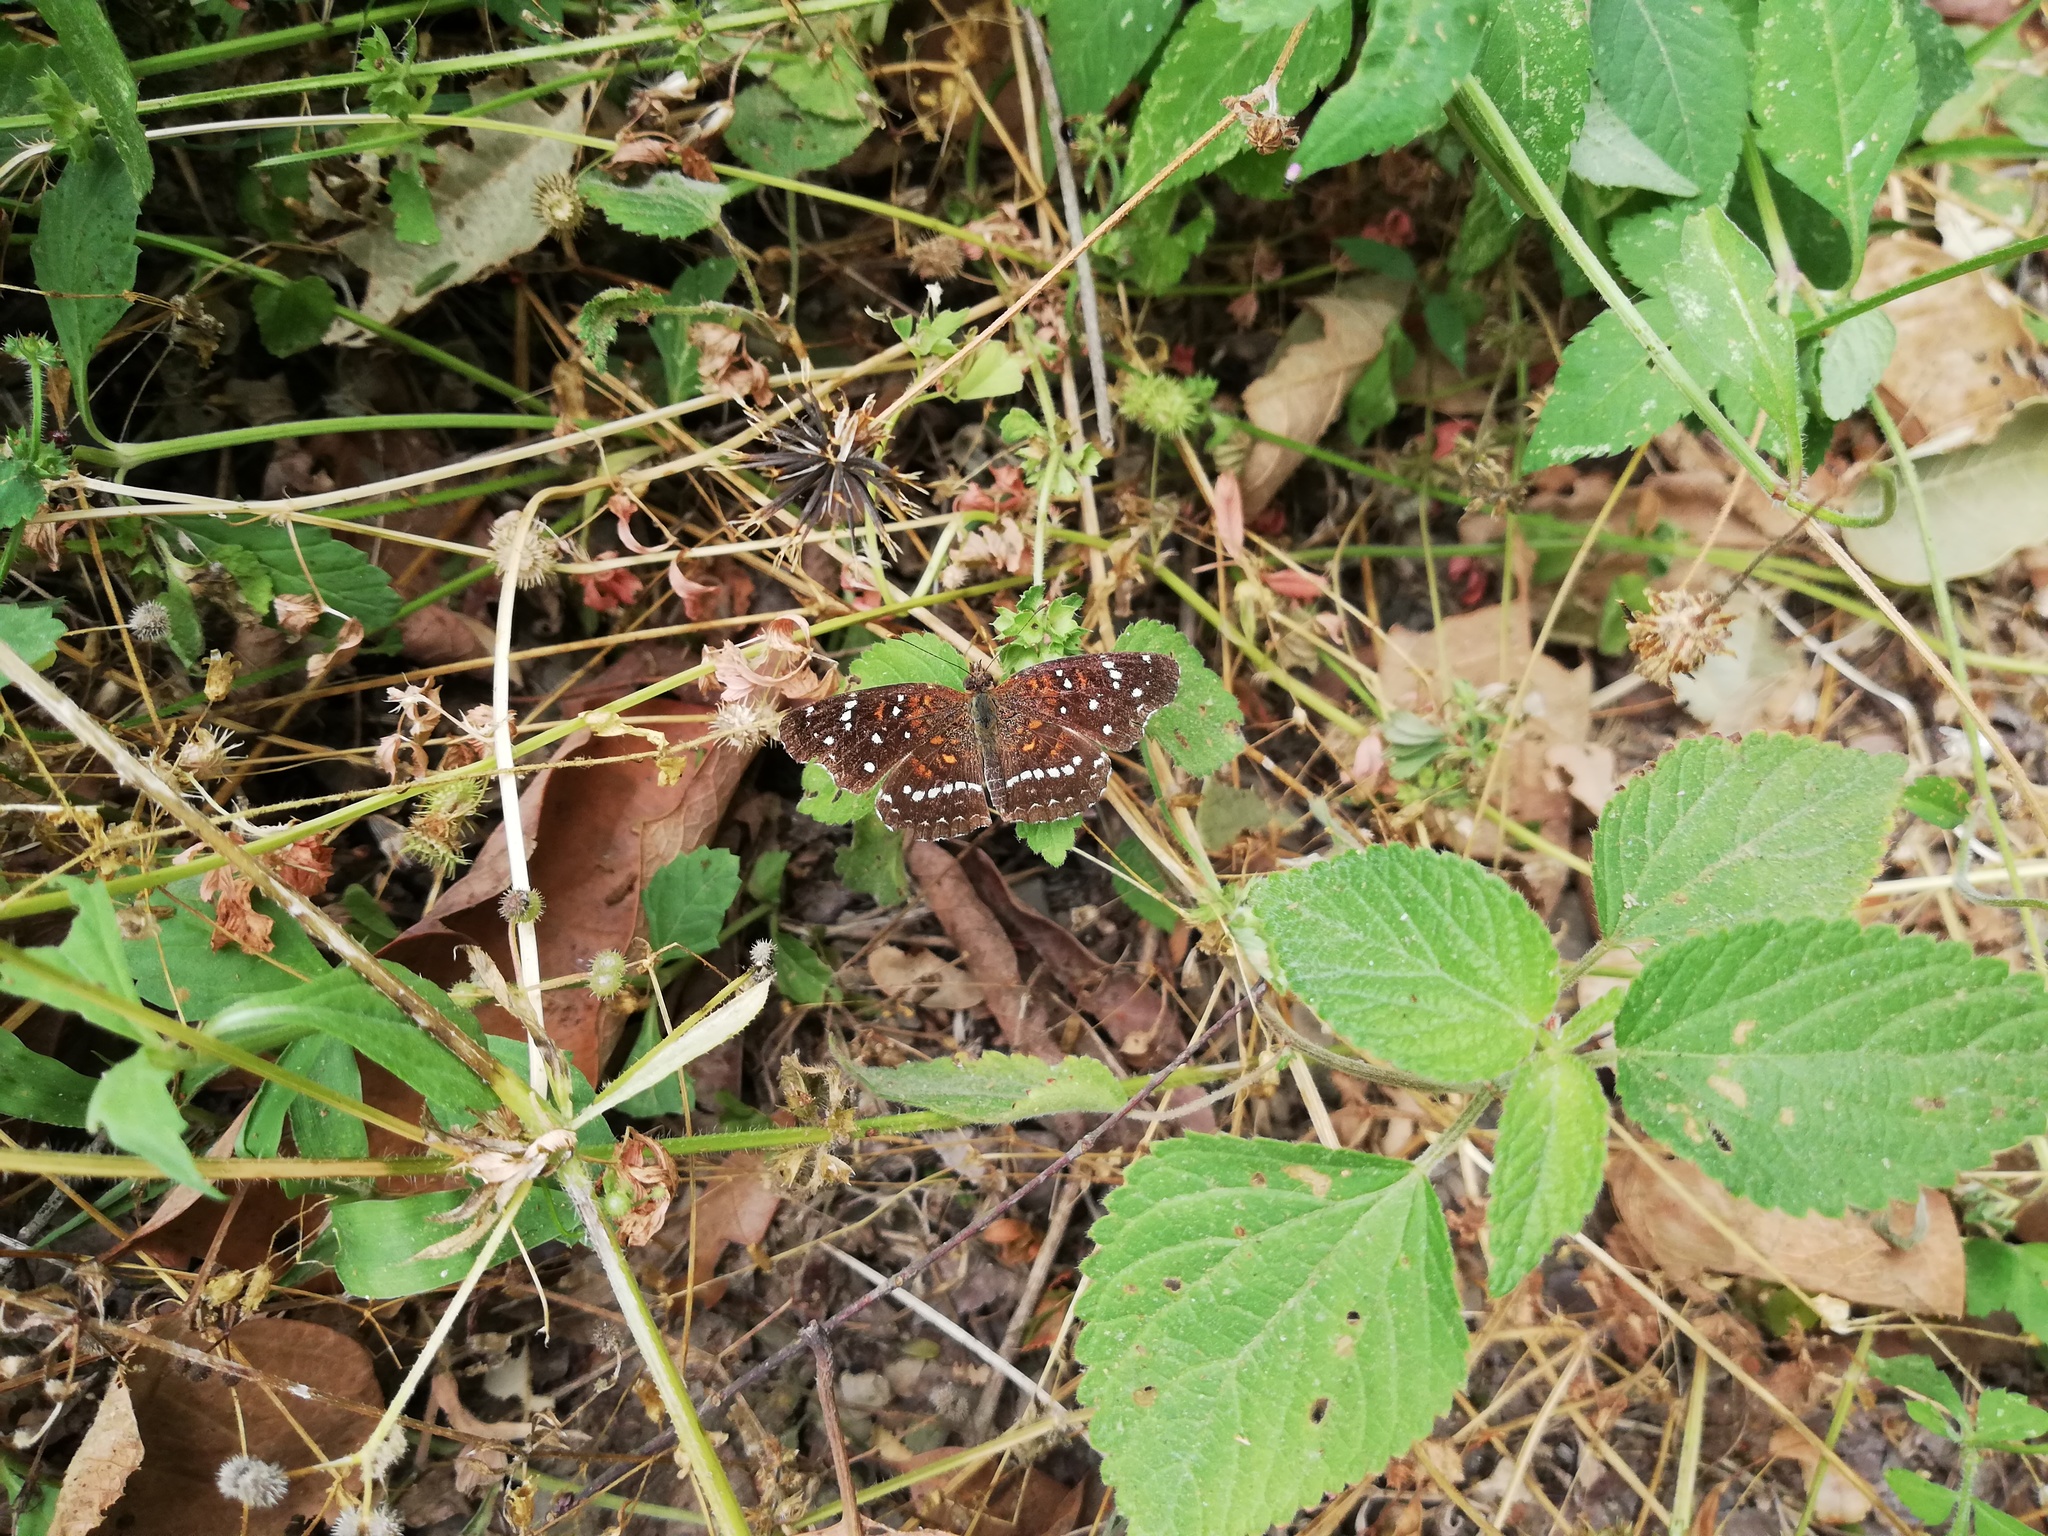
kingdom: Animalia
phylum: Arthropoda
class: Insecta
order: Lepidoptera
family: Nymphalidae
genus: Anthanassa
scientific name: Anthanassa texana
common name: Texan crescent
